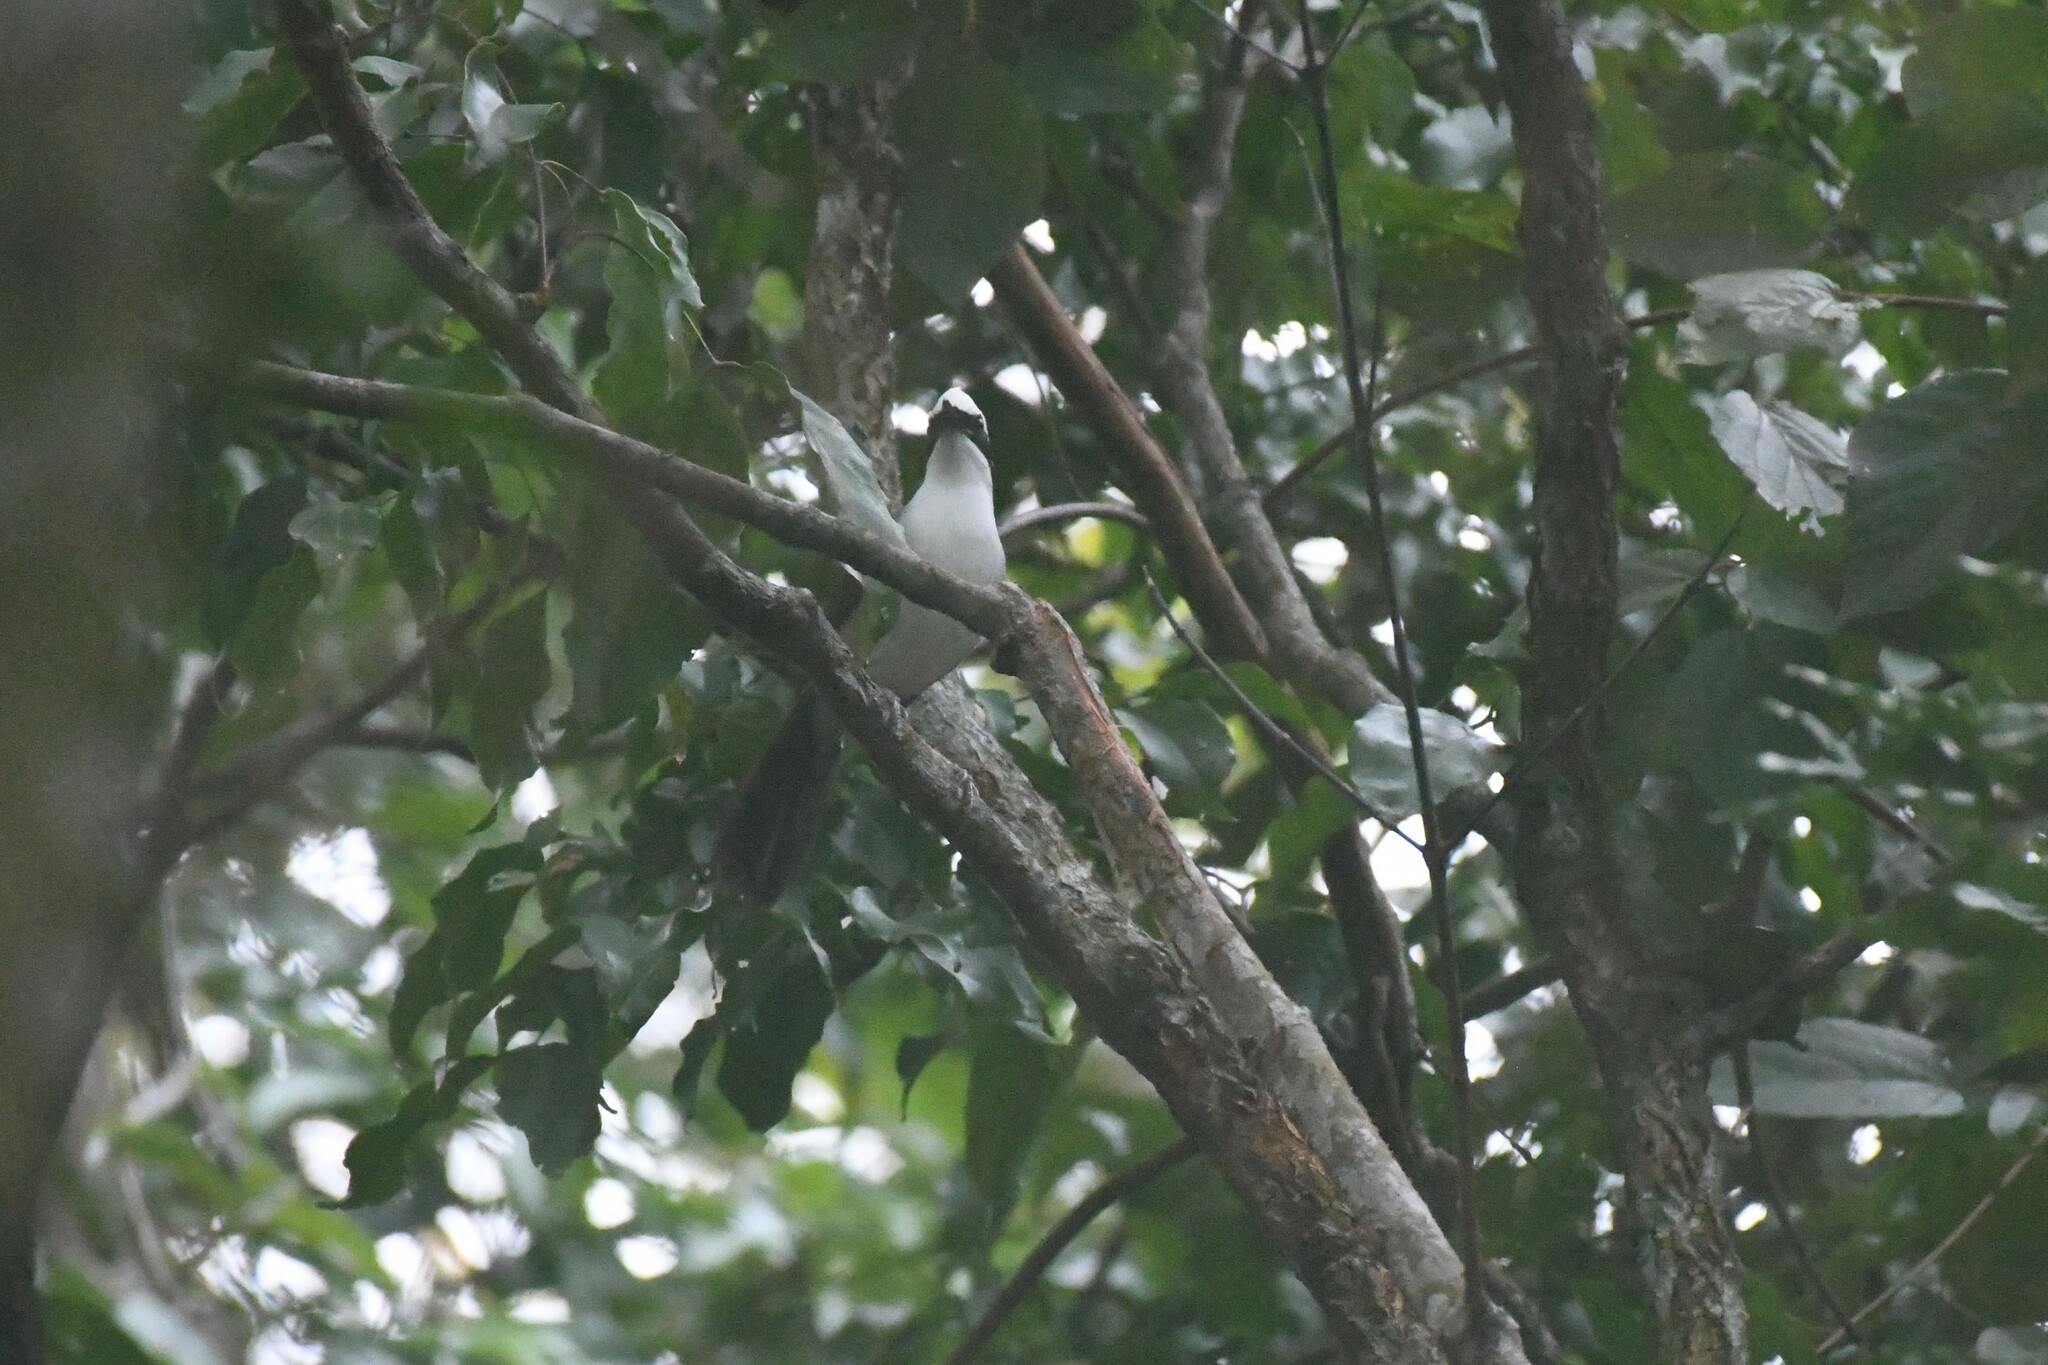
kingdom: Animalia
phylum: Chordata
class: Aves
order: Passeriformes
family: Leiothrichidae
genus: Garrulax
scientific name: Garrulax leucolophus
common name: White-crested laughingthrush
